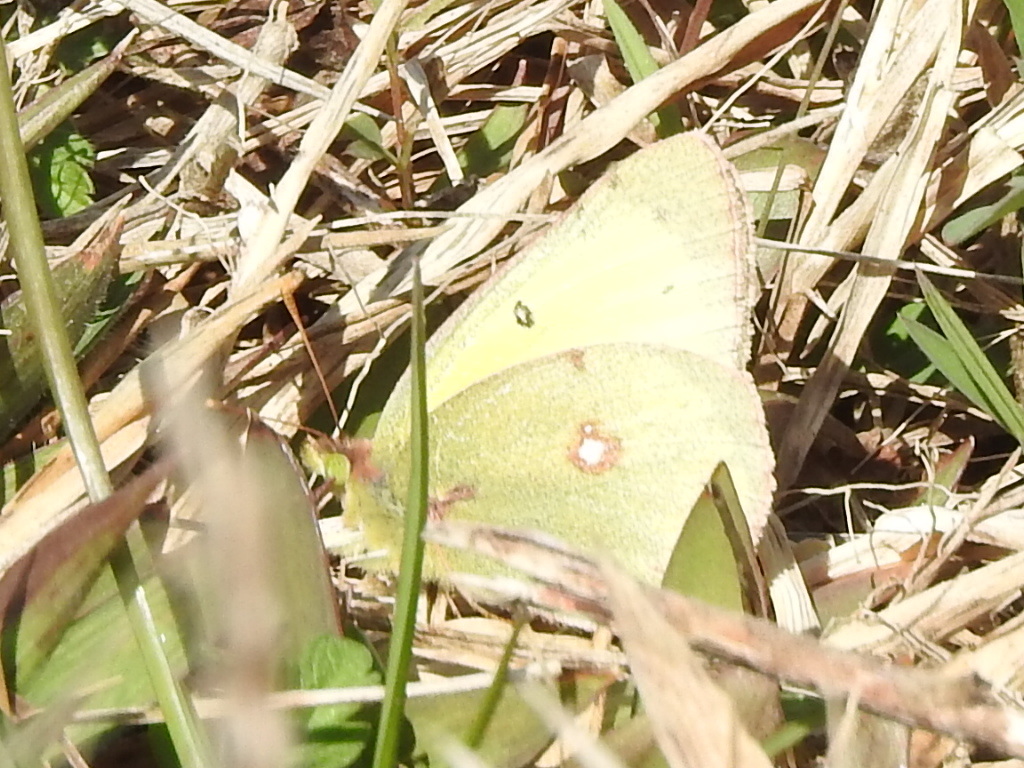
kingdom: Animalia
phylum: Arthropoda
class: Insecta
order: Lepidoptera
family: Pieridae
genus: Colias
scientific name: Colias eurytheme
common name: Alfalfa butterfly
